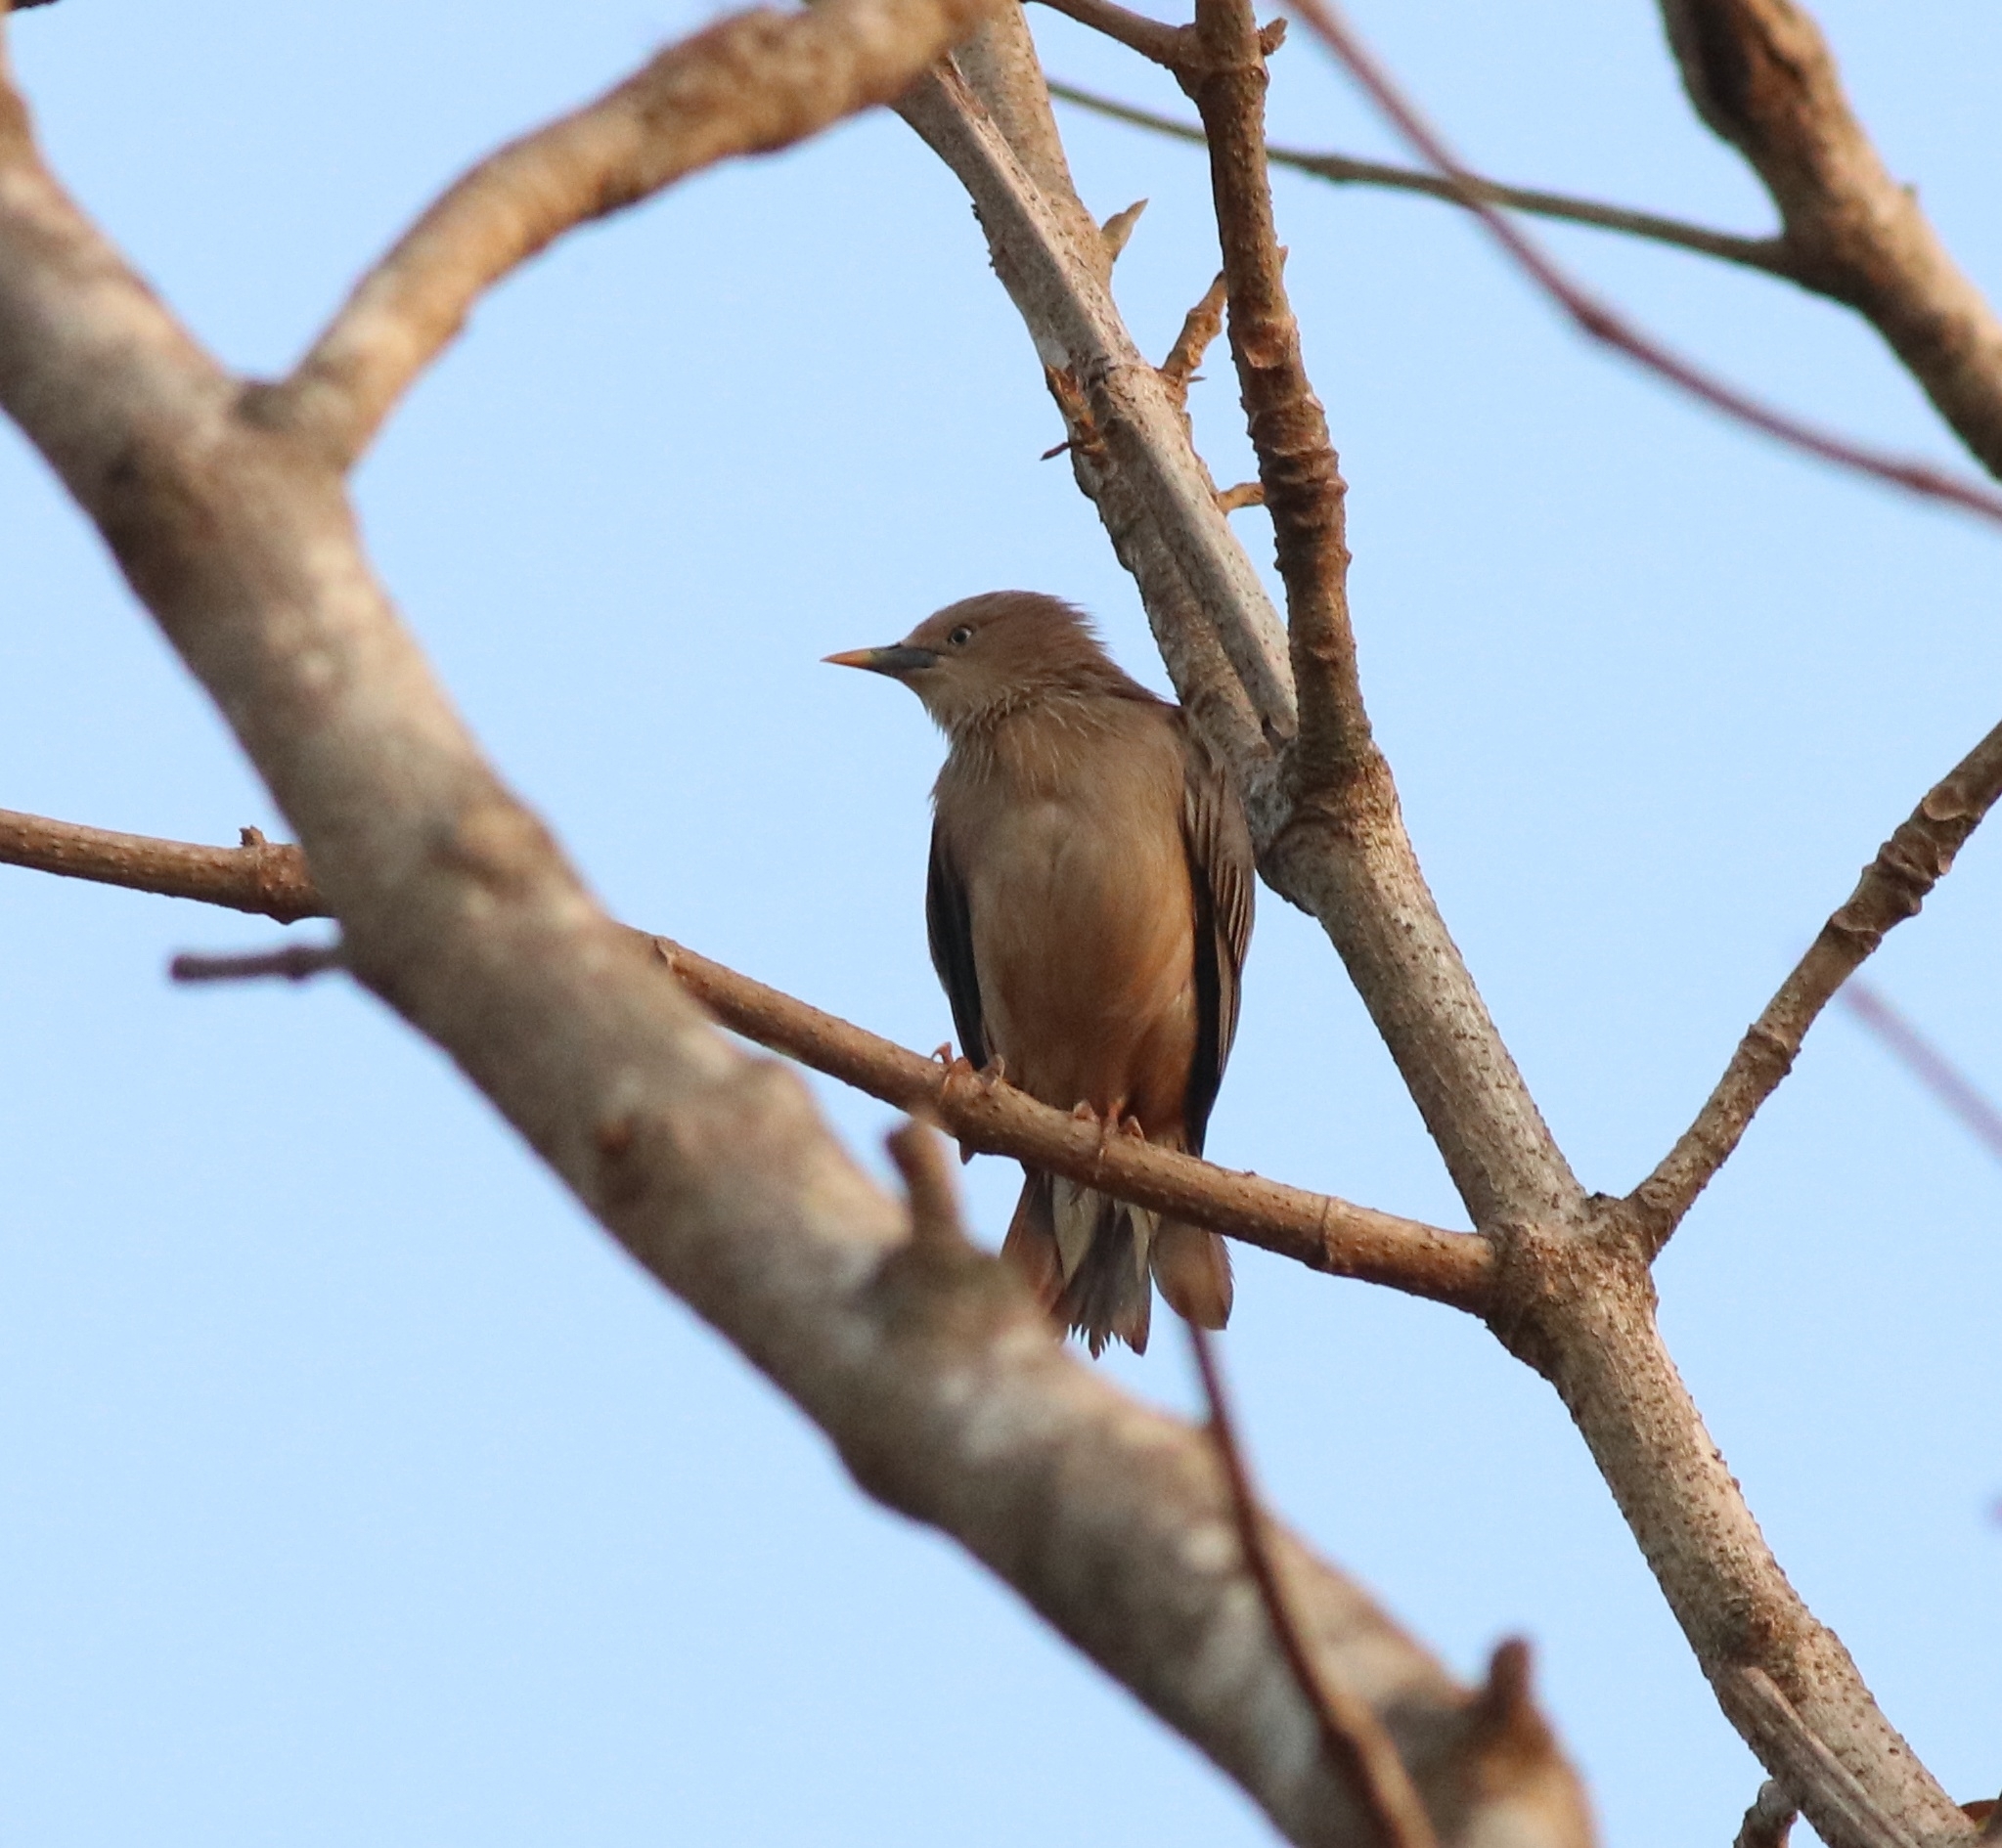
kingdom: Animalia
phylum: Chordata
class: Aves
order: Passeriformes
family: Sturnidae
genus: Sturnia
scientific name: Sturnia malabarica
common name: Chestnut-tailed starling
